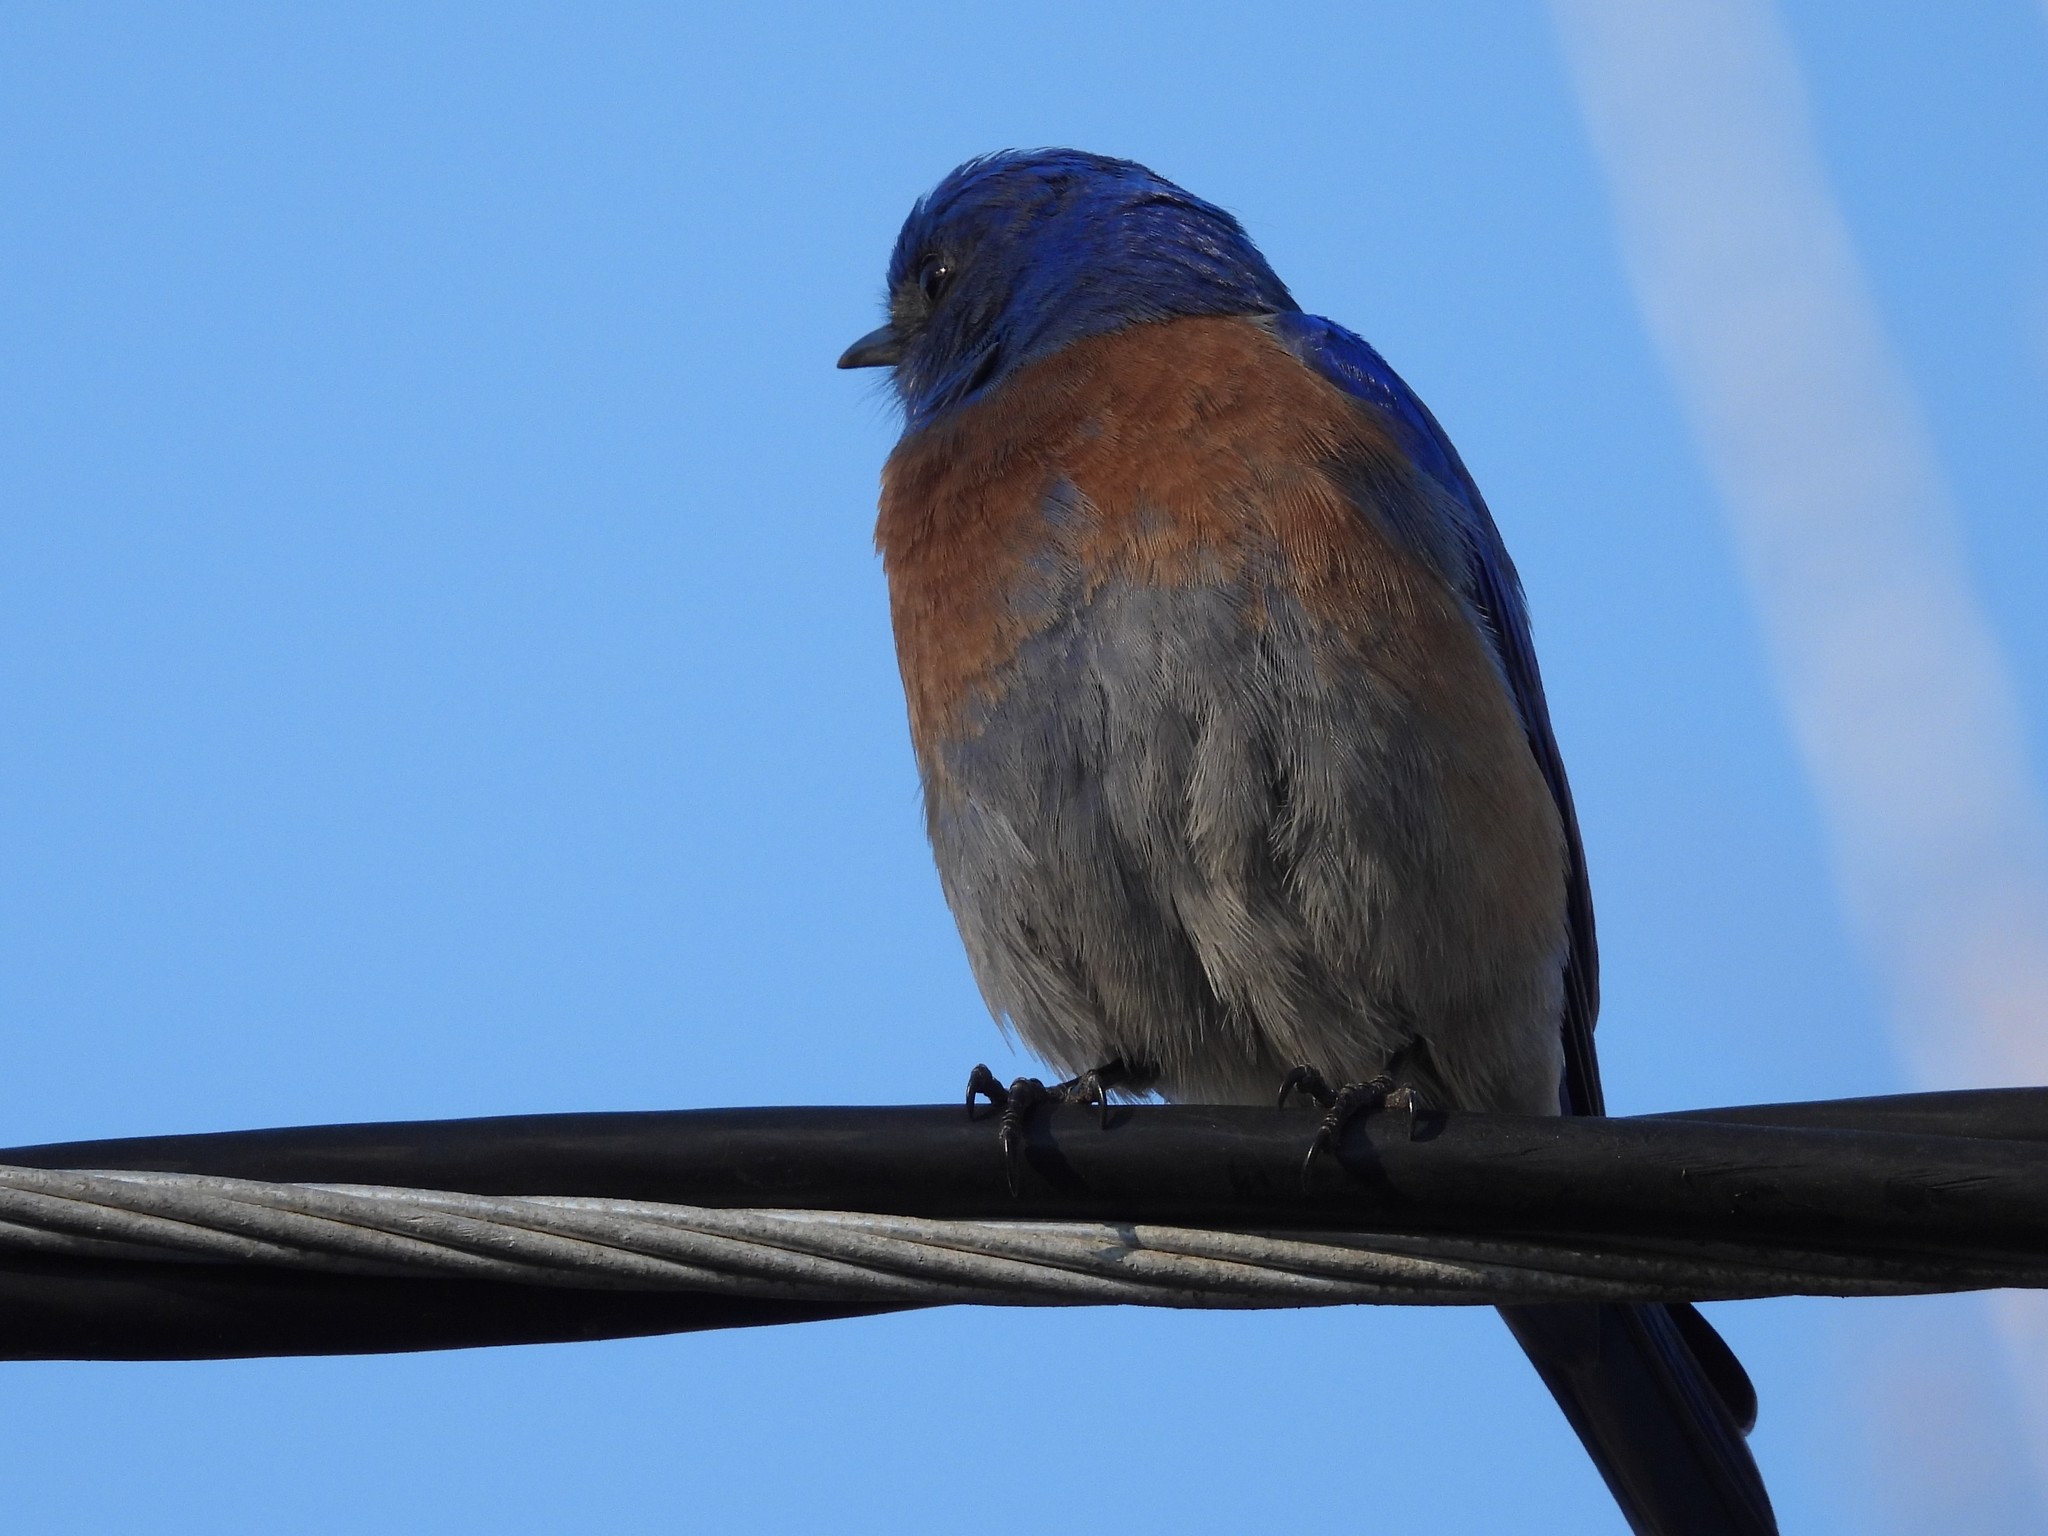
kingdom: Animalia
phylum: Chordata
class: Aves
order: Passeriformes
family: Turdidae
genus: Sialia
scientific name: Sialia mexicana
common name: Western bluebird
